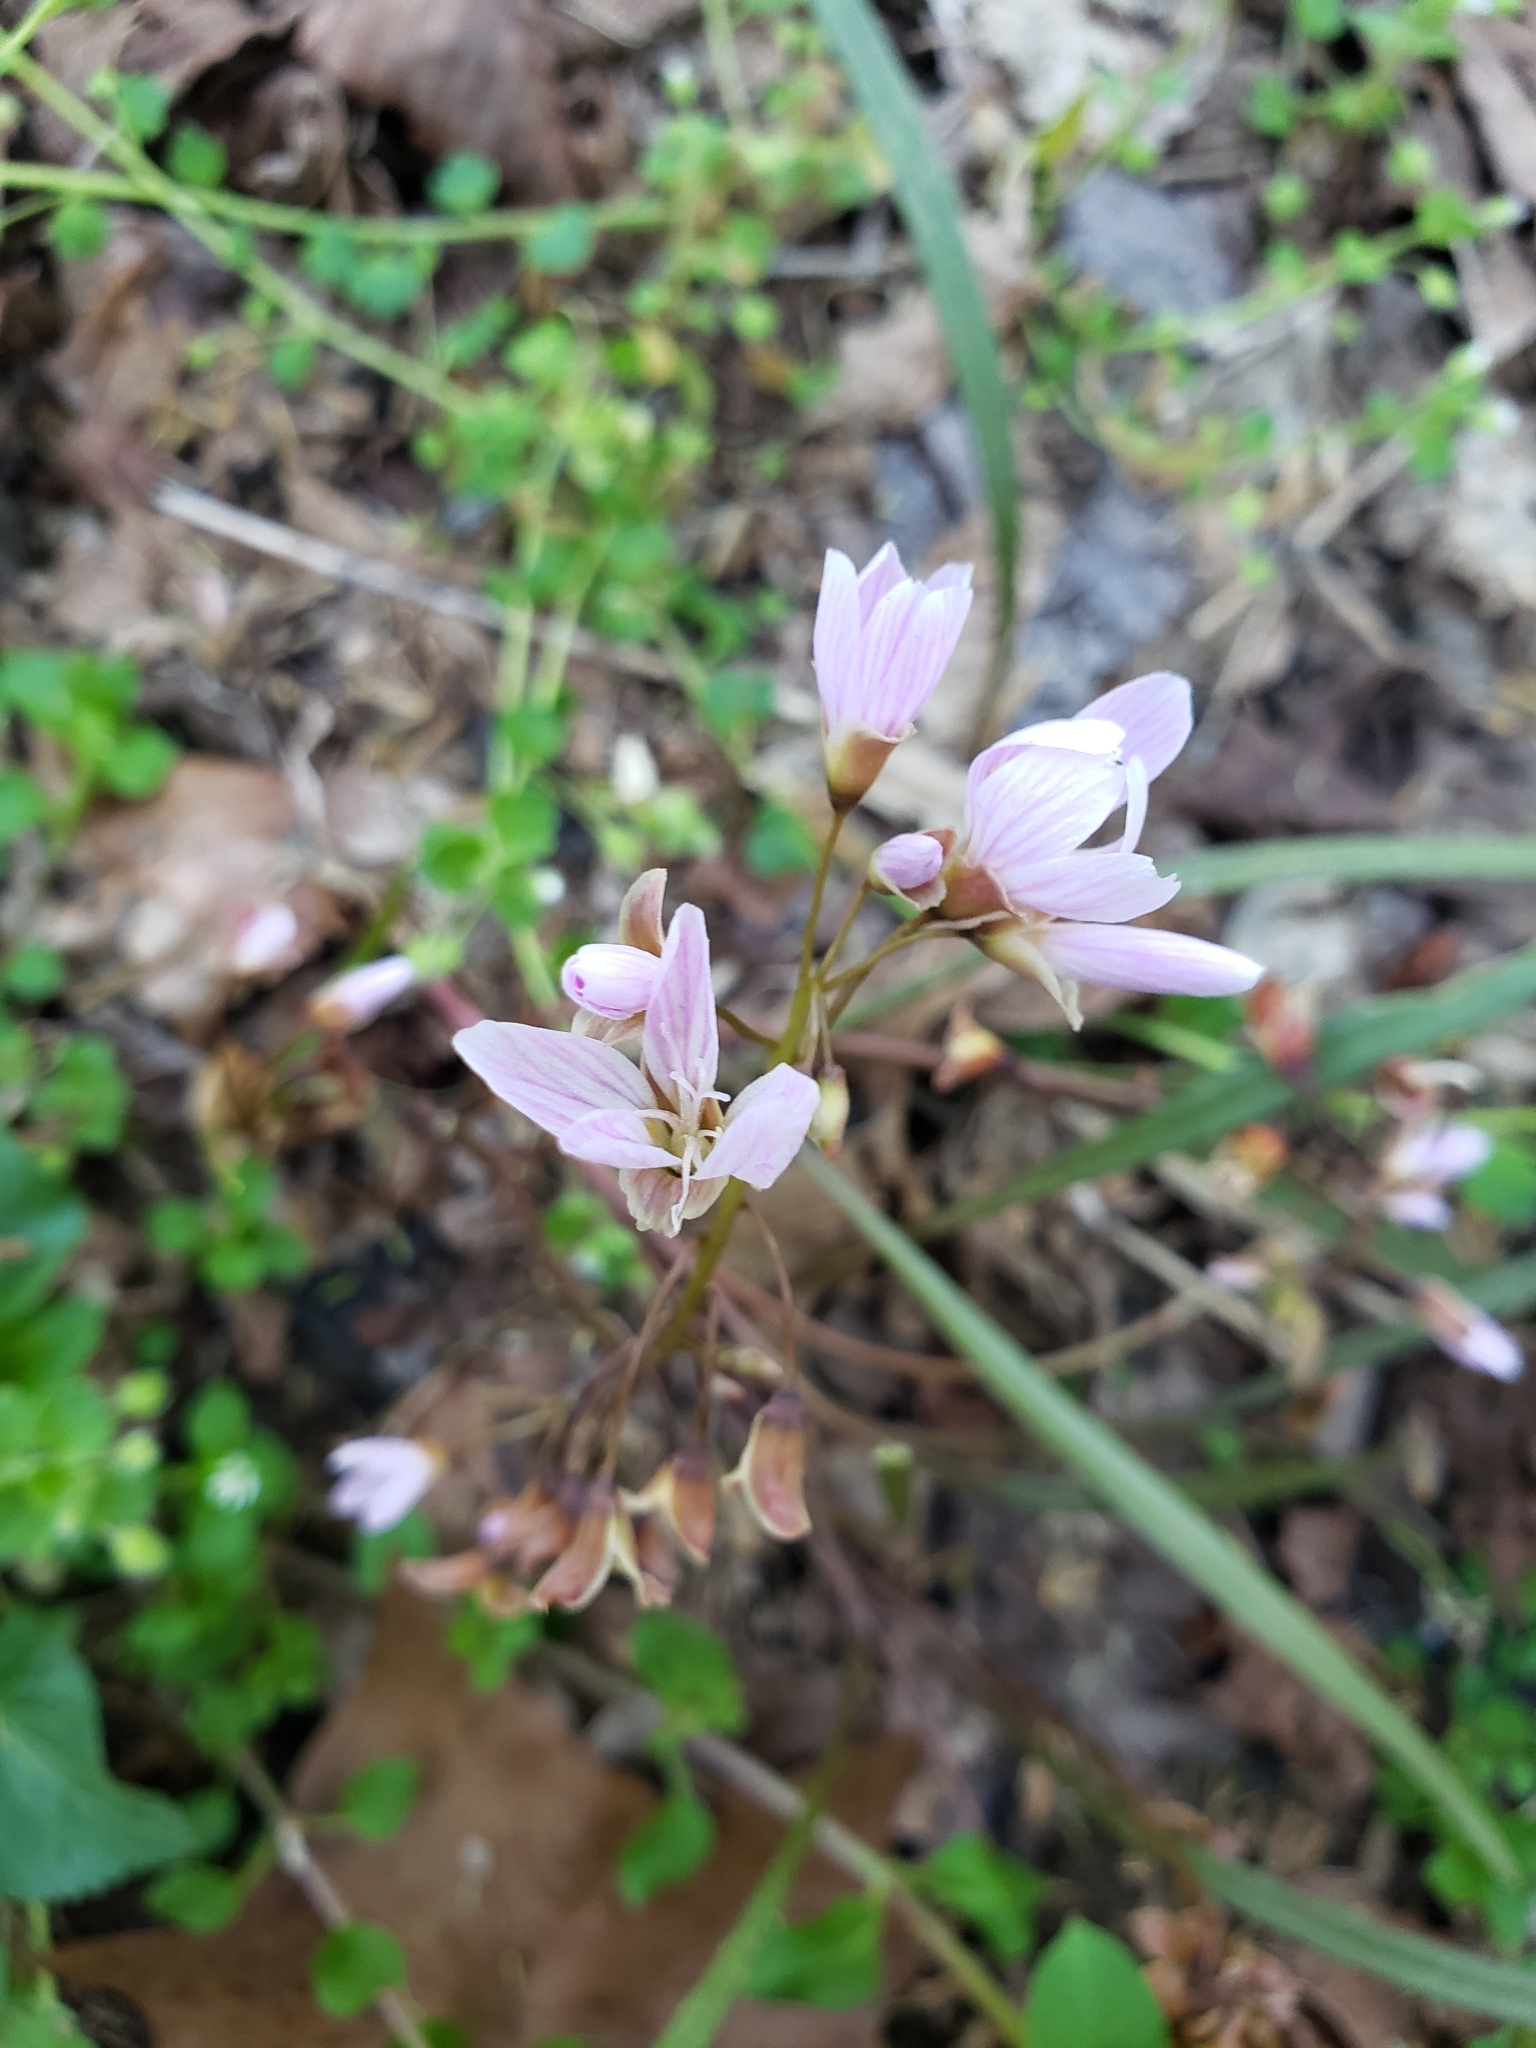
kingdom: Plantae
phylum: Tracheophyta
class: Magnoliopsida
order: Caryophyllales
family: Montiaceae
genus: Claytonia
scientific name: Claytonia virginica
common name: Virginia springbeauty
